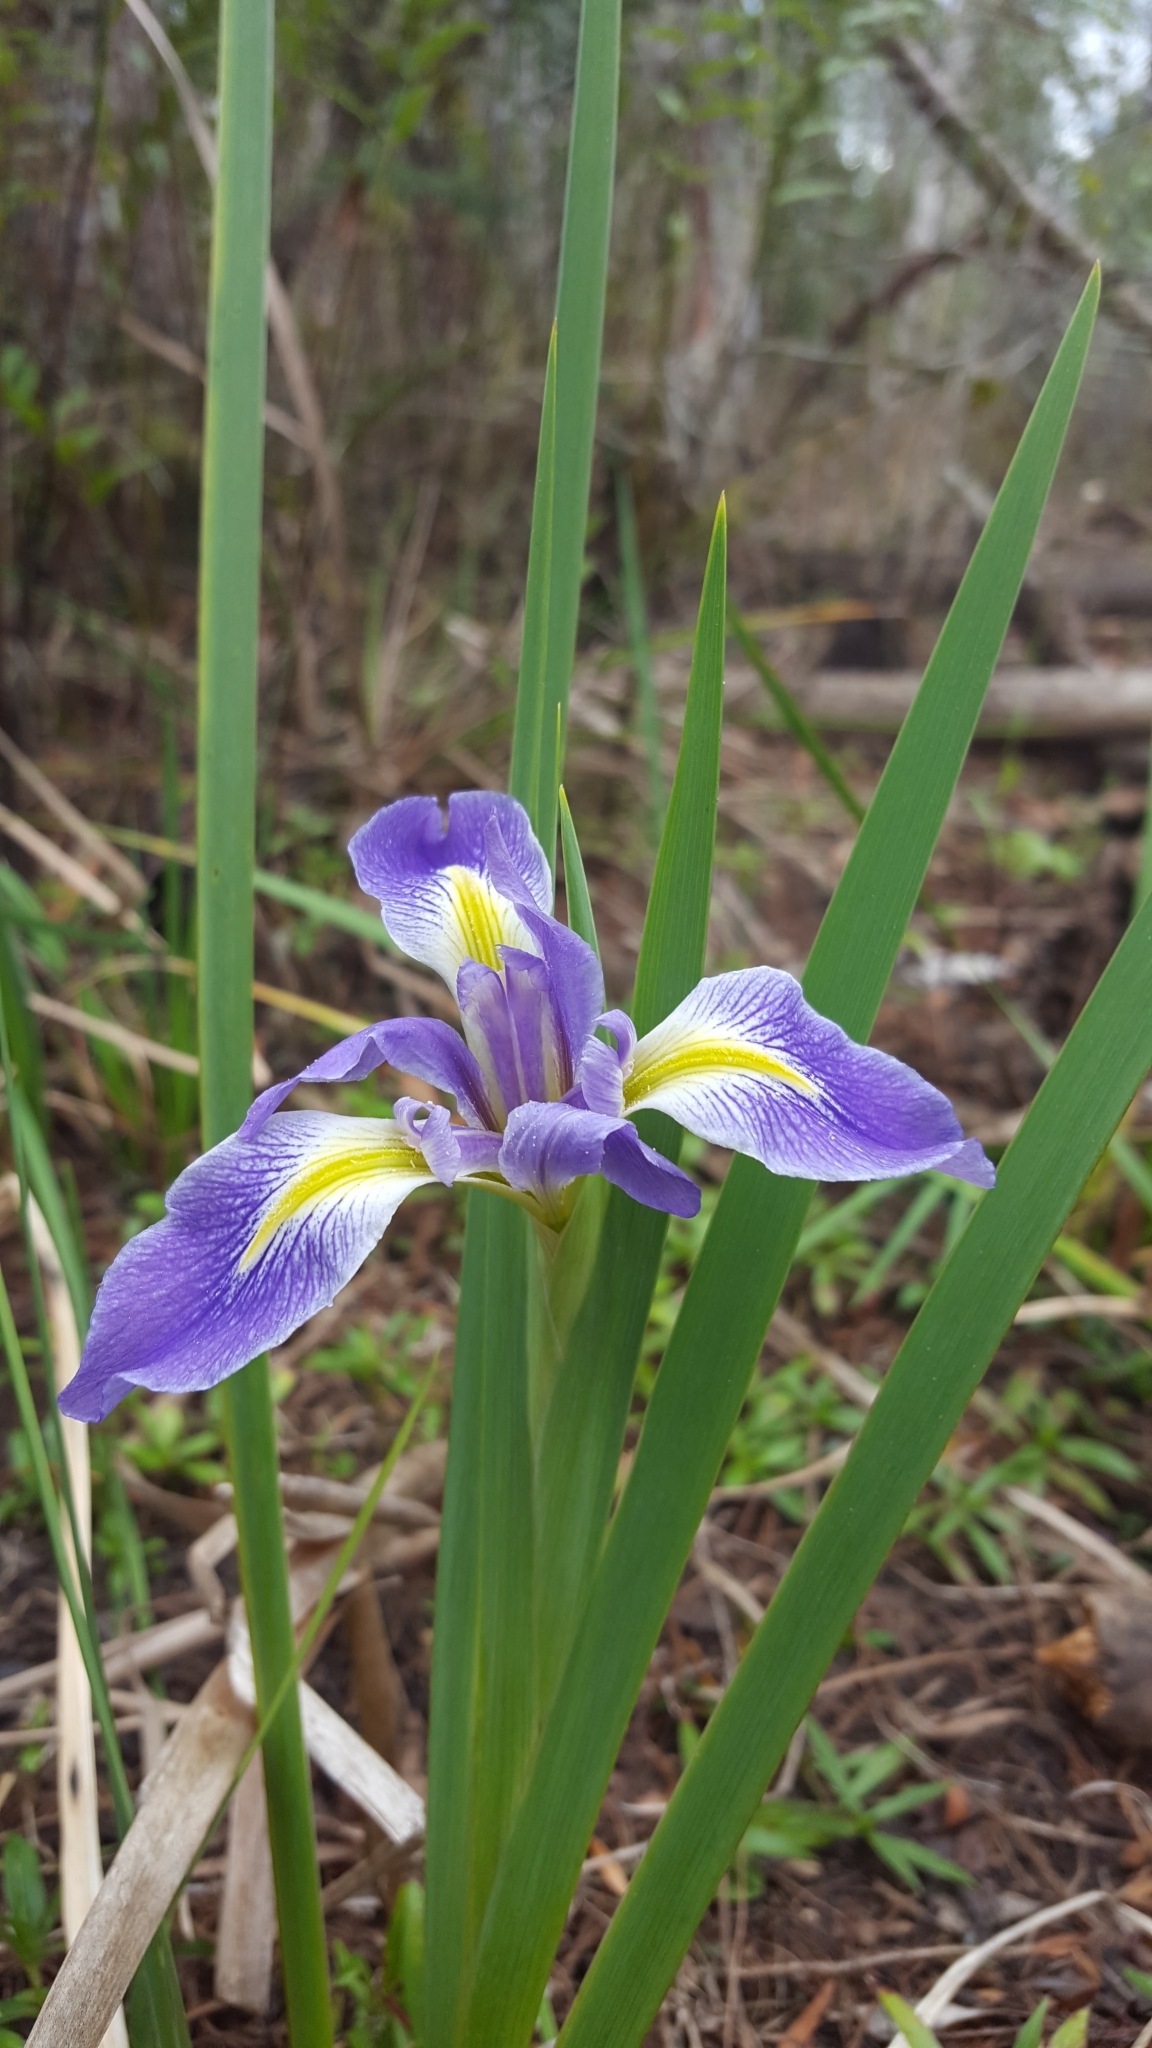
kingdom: Plantae
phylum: Tracheophyta
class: Liliopsida
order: Asparagales
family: Iridaceae
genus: Iris
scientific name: Iris savannarum
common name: Prairie iris
